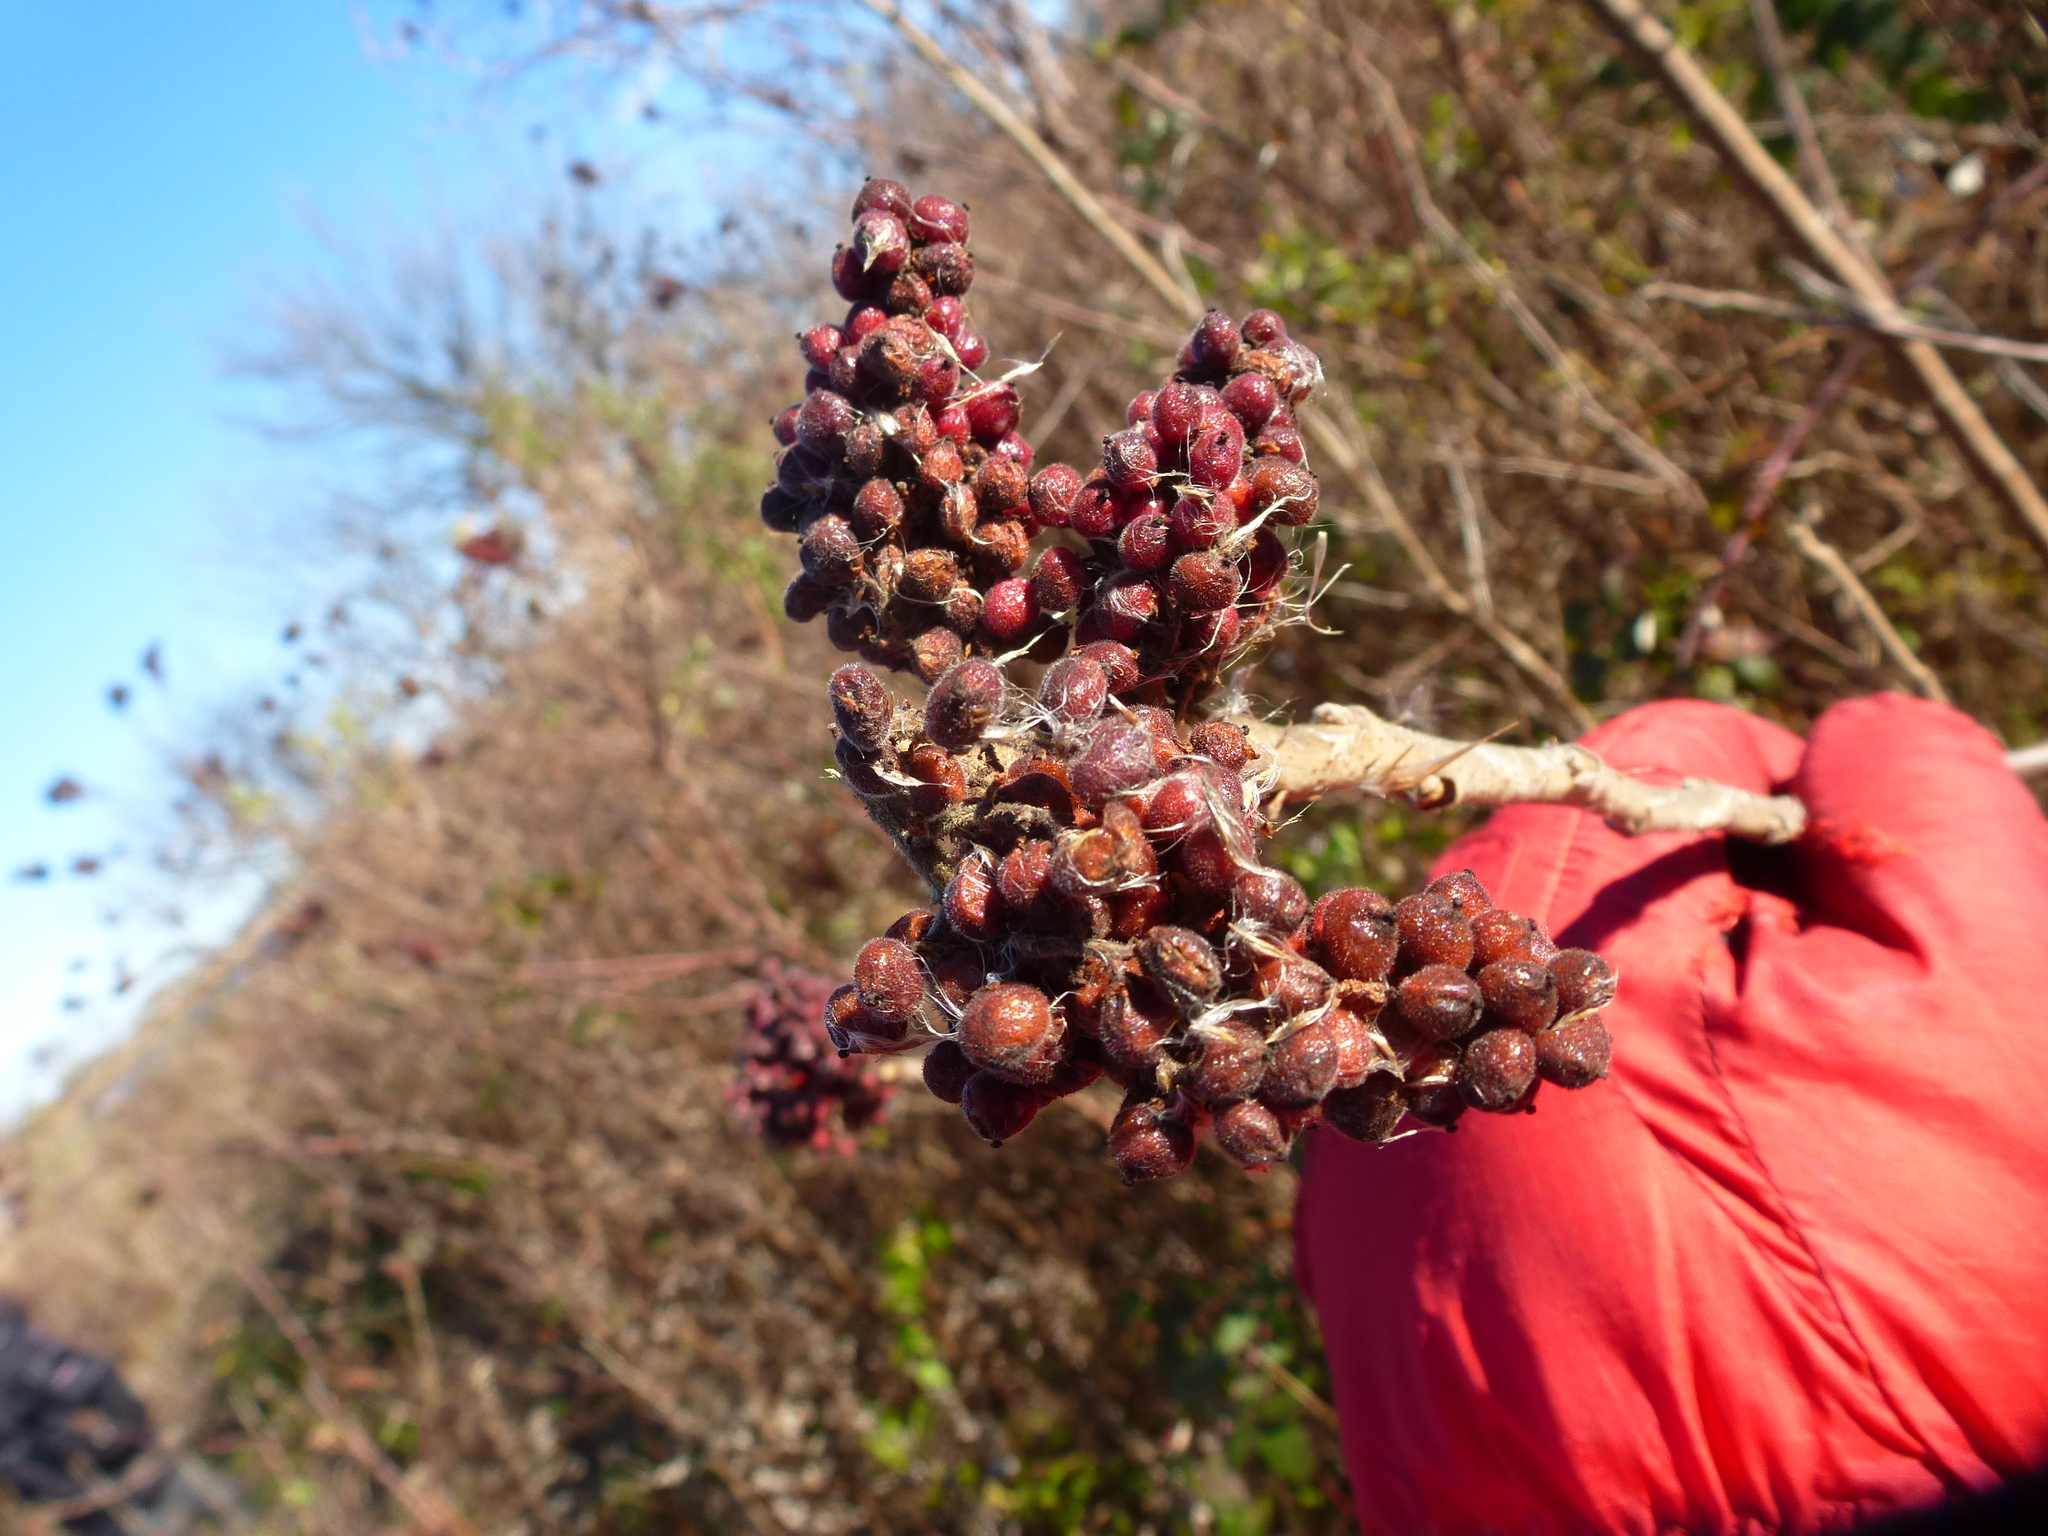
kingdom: Plantae
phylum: Tracheophyta
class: Magnoliopsida
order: Sapindales
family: Anacardiaceae
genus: Rhus
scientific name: Rhus copallina
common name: Shining sumac
